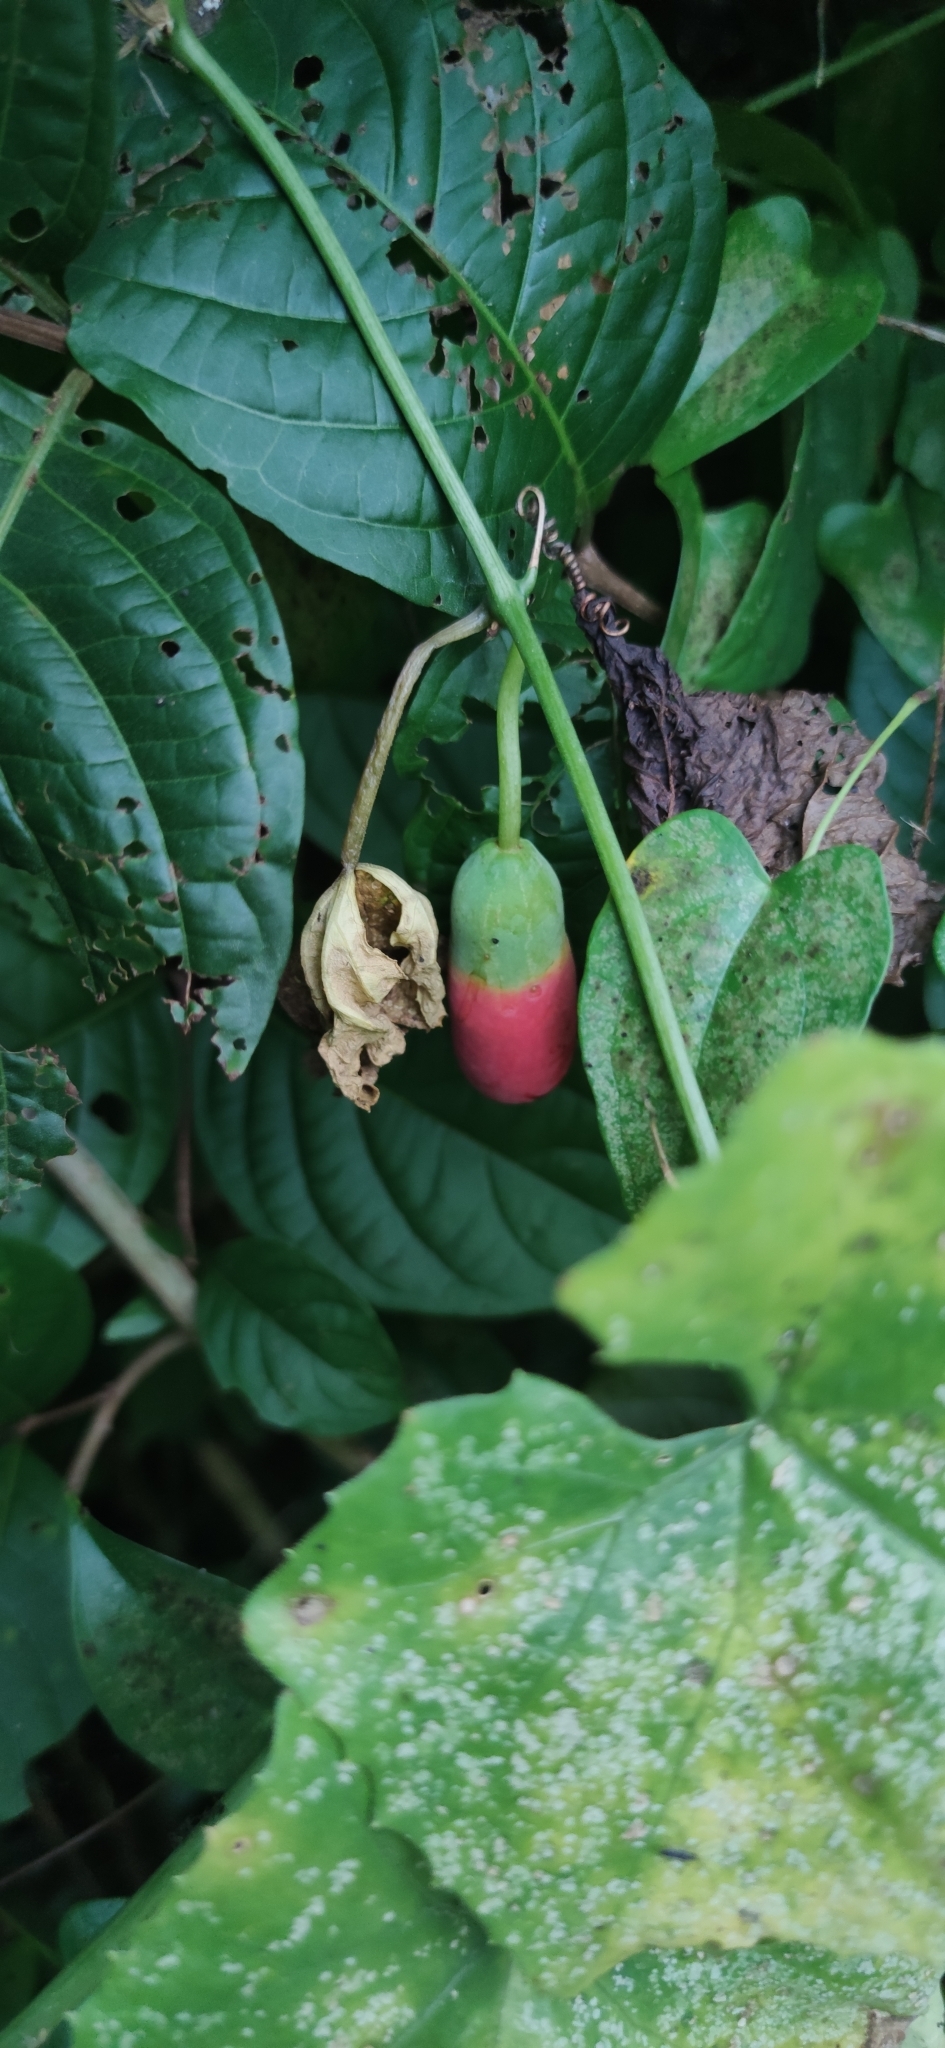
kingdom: Plantae
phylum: Tracheophyta
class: Magnoliopsida
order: Cucurbitales
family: Cucurbitaceae
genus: Coccinia
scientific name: Coccinia grandis
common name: Ivy gourd
